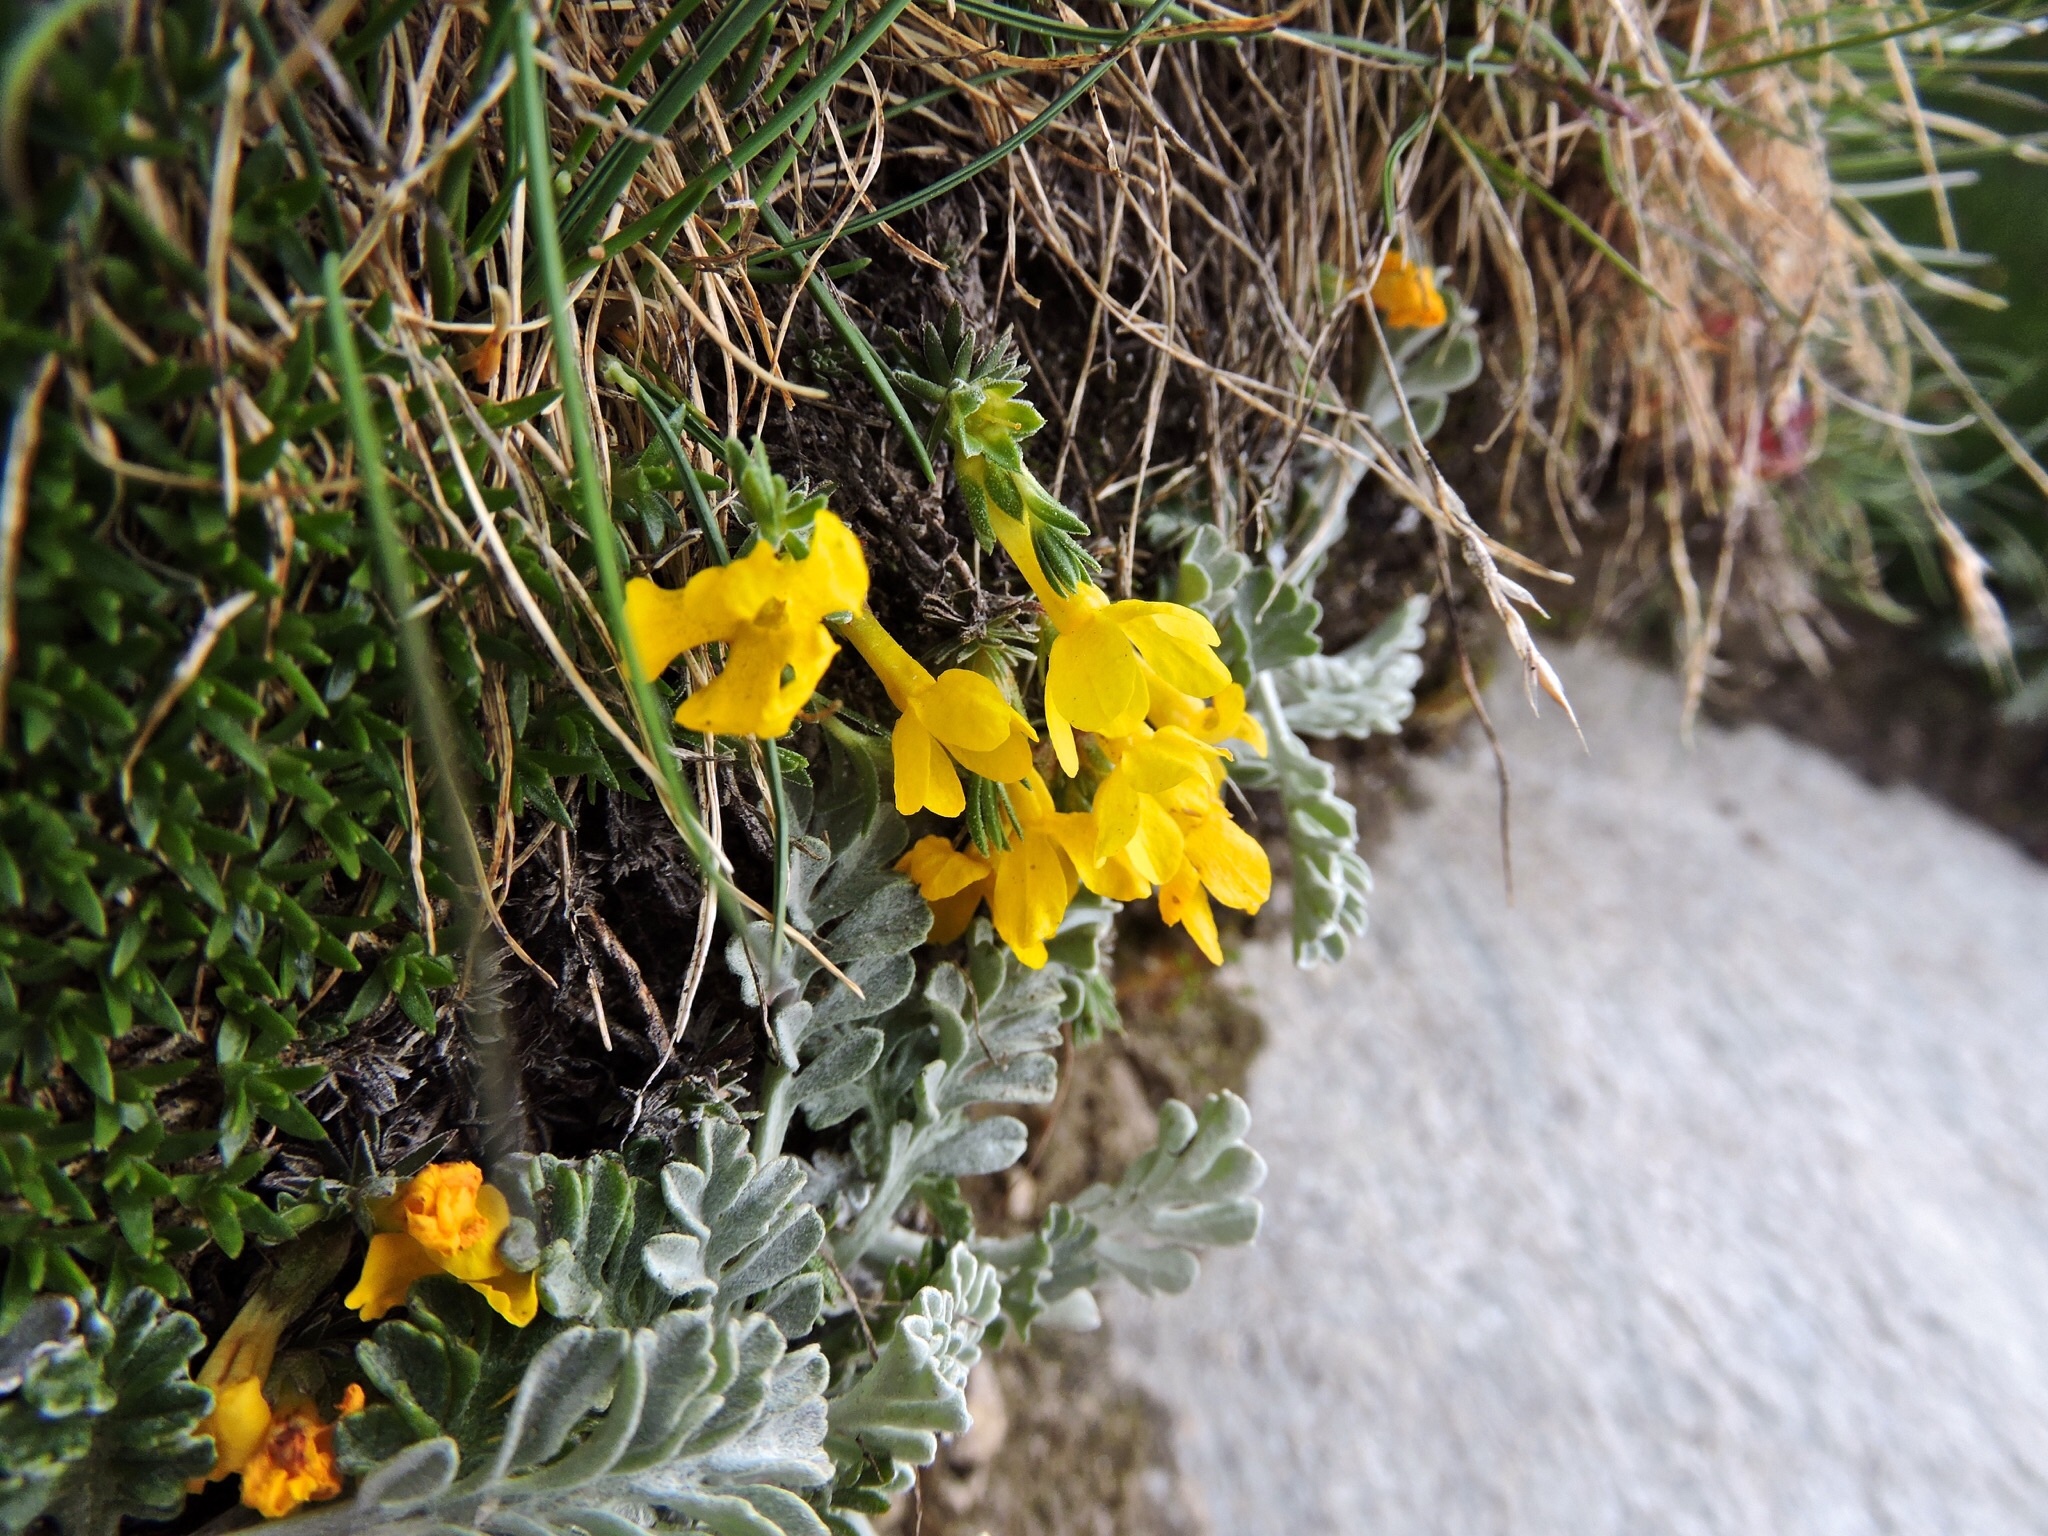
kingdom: Plantae
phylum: Tracheophyta
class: Magnoliopsida
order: Ericales
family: Primulaceae
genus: Androsace
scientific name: Androsace vitaliana
